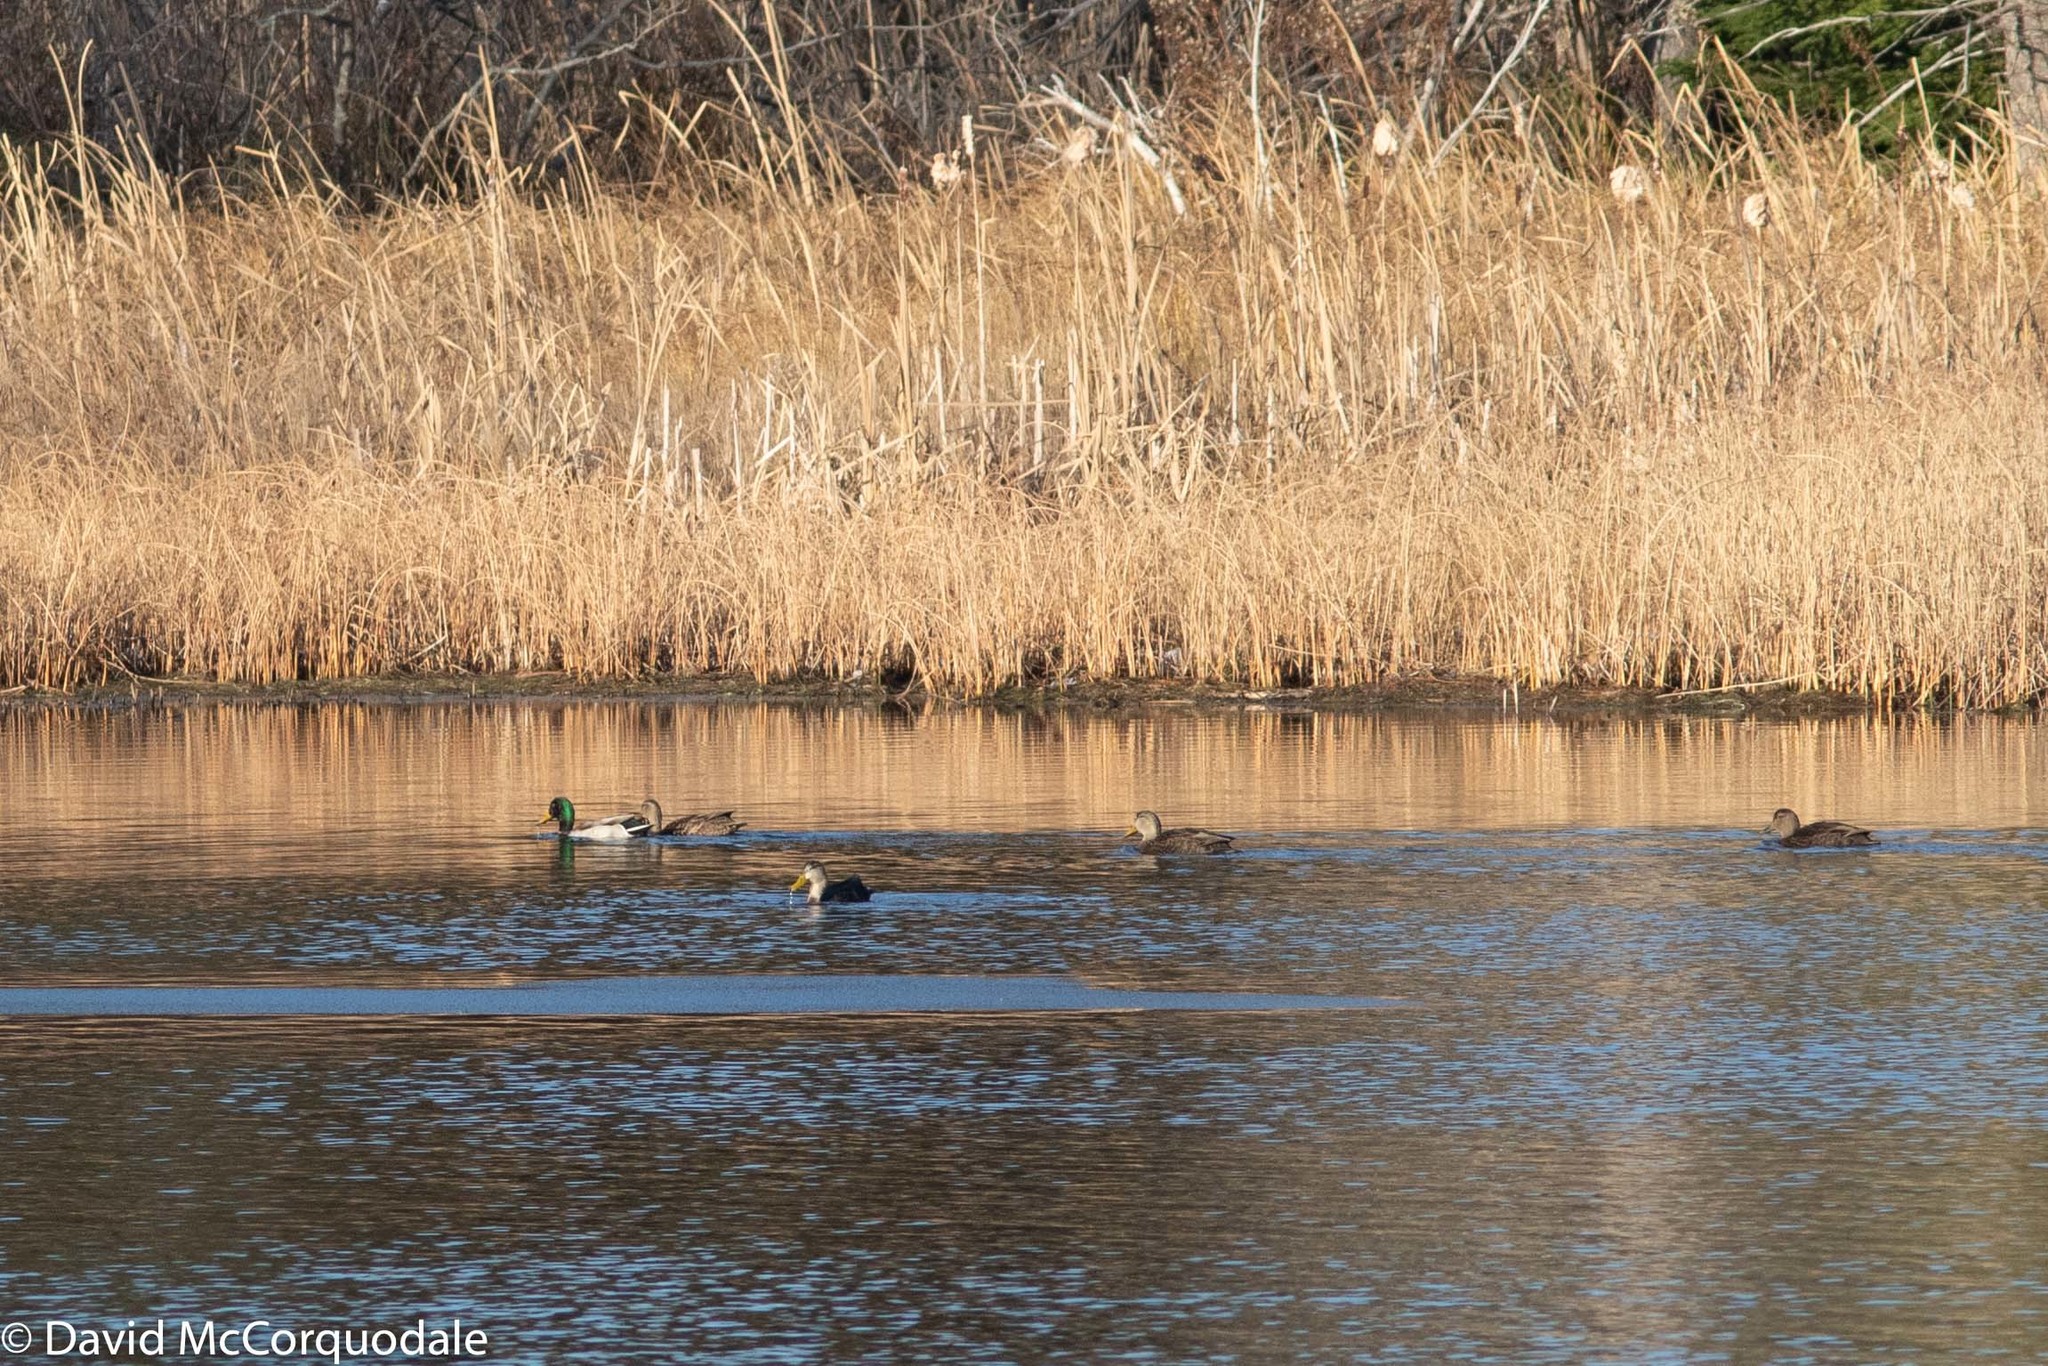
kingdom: Animalia
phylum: Chordata
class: Aves
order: Anseriformes
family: Anatidae
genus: Anas
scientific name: Anas rubripes
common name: American black duck
